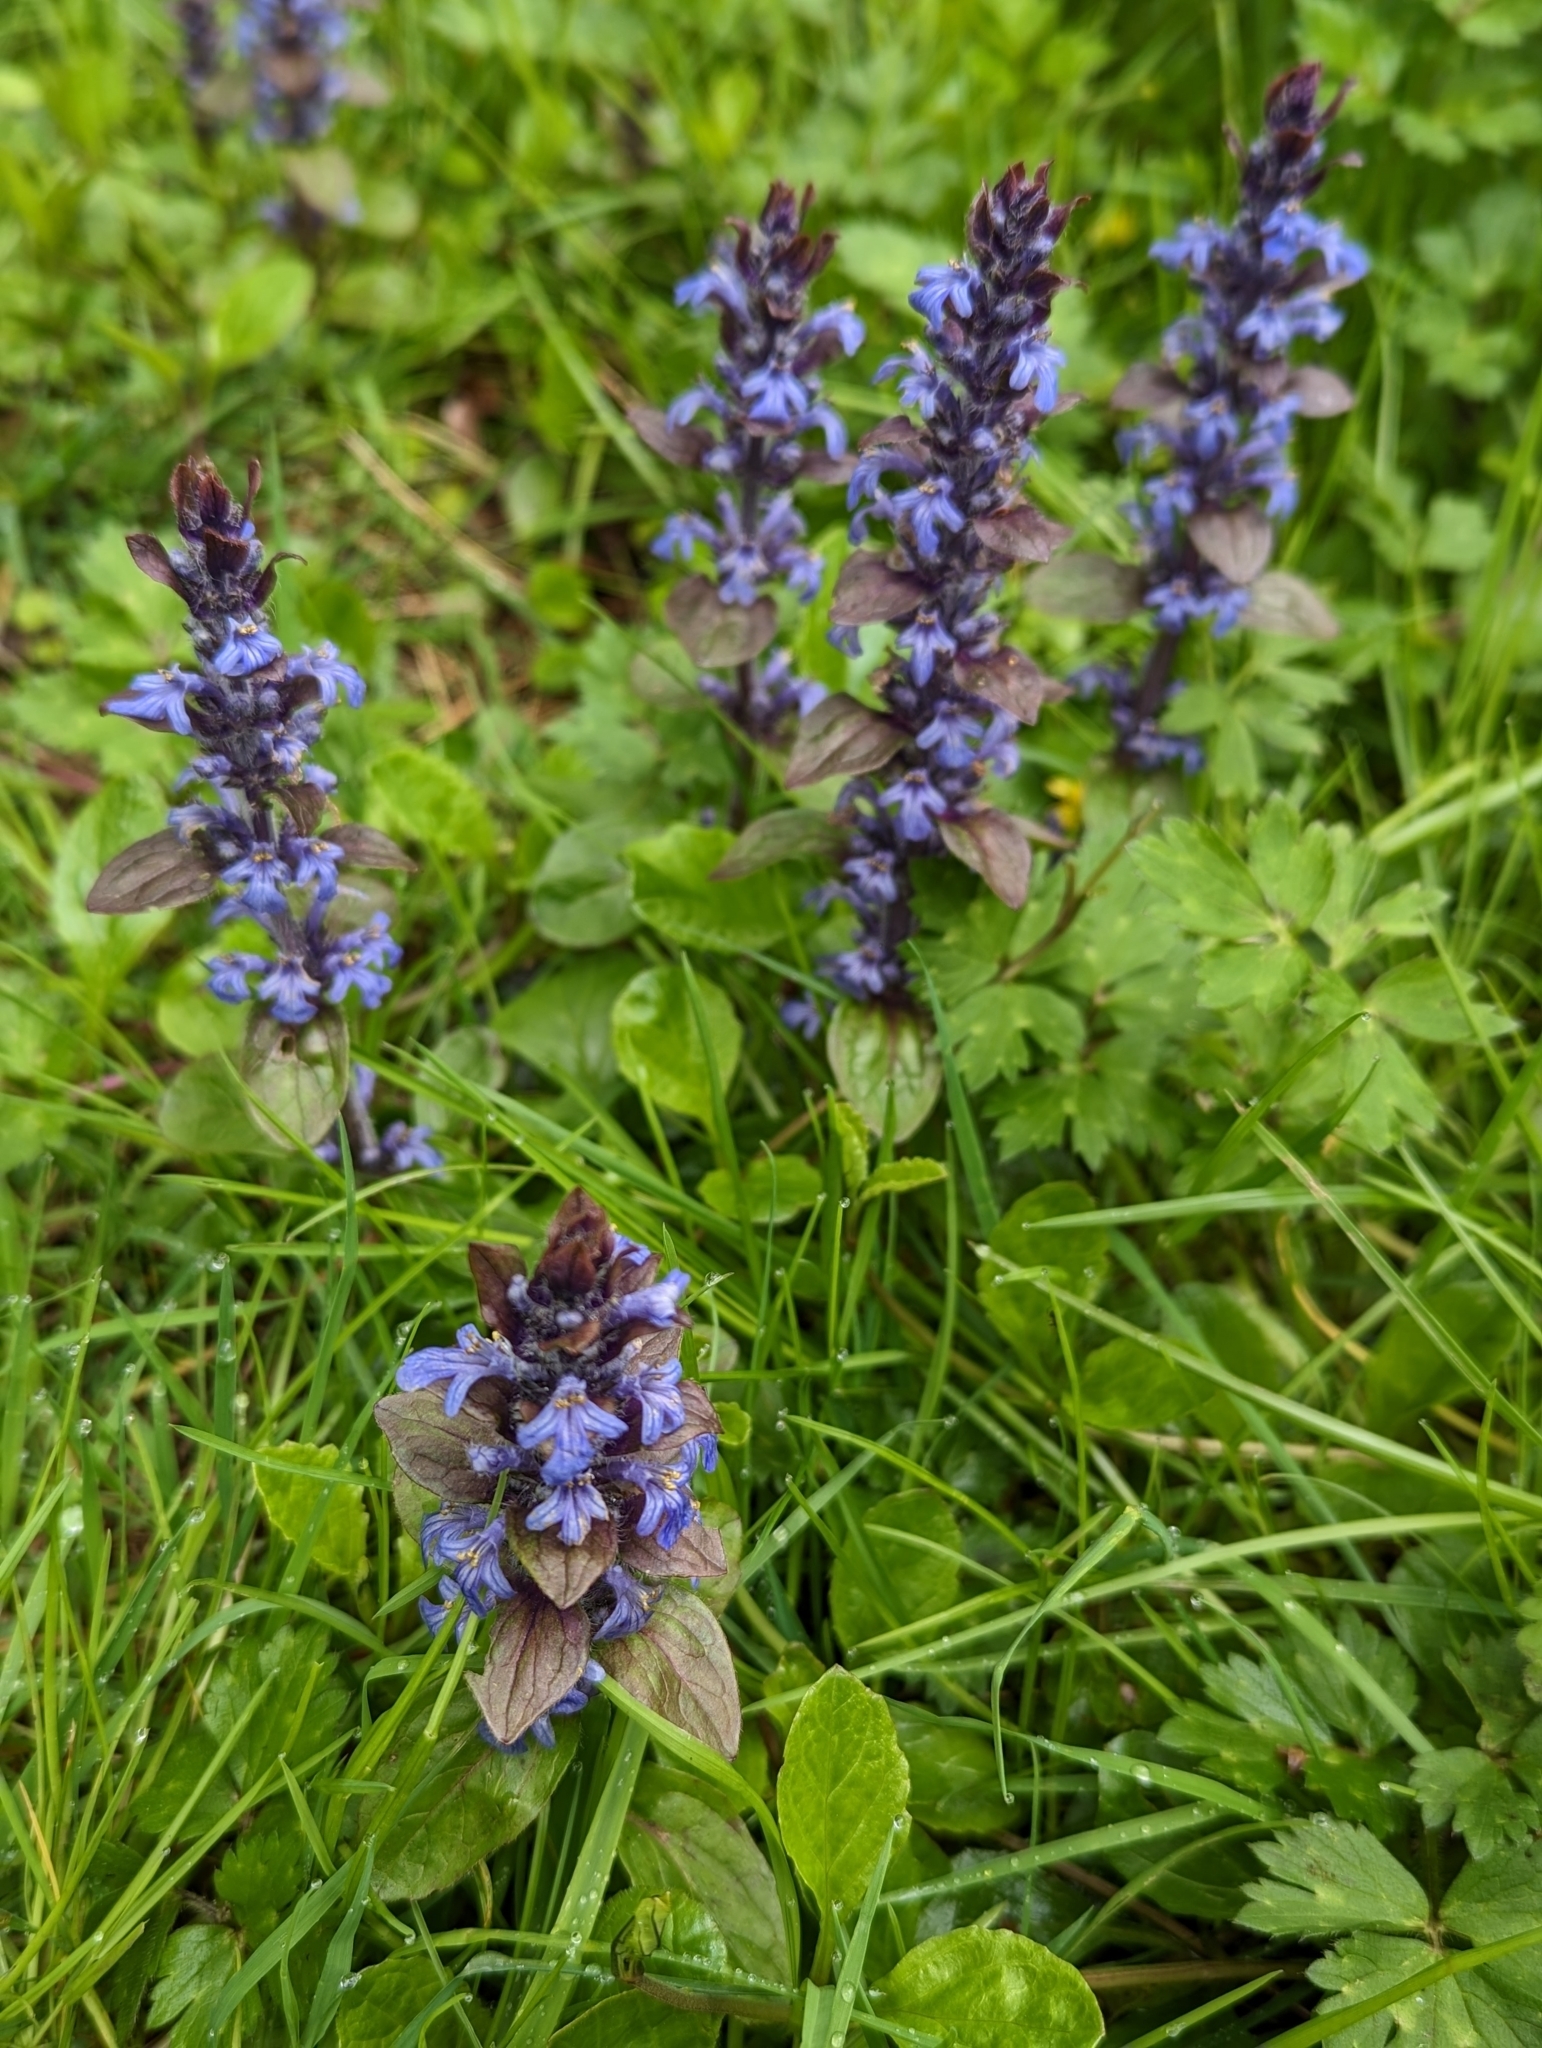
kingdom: Plantae
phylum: Tracheophyta
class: Magnoliopsida
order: Lamiales
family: Lamiaceae
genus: Ajuga
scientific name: Ajuga reptans
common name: Bugle
